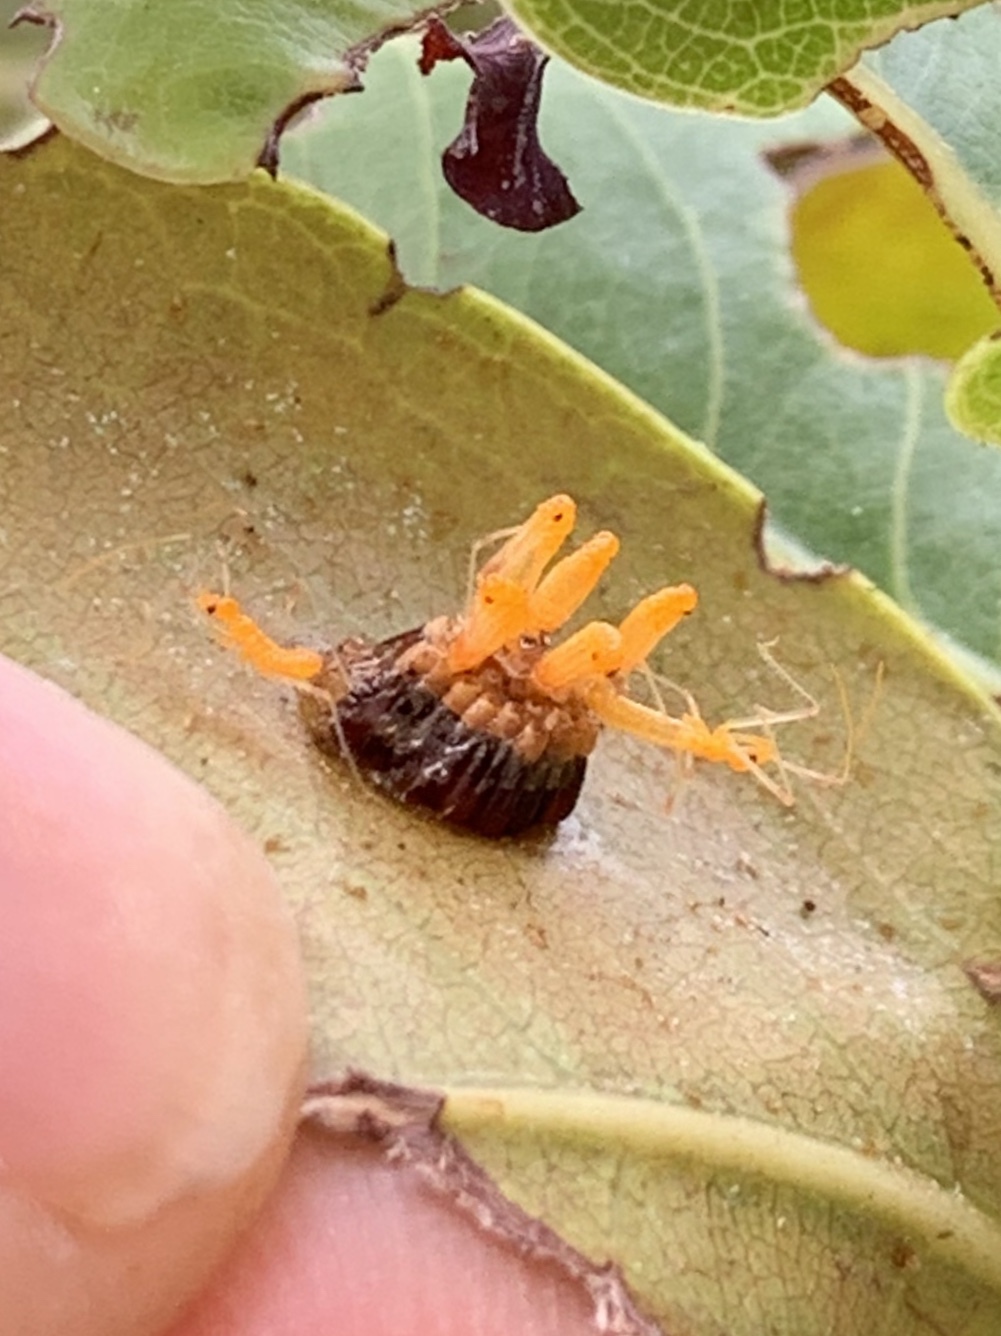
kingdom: Animalia
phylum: Arthropoda
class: Insecta
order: Hemiptera
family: Reduviidae
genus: Zelus
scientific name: Zelus longipes
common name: Milkweed assassin bug
